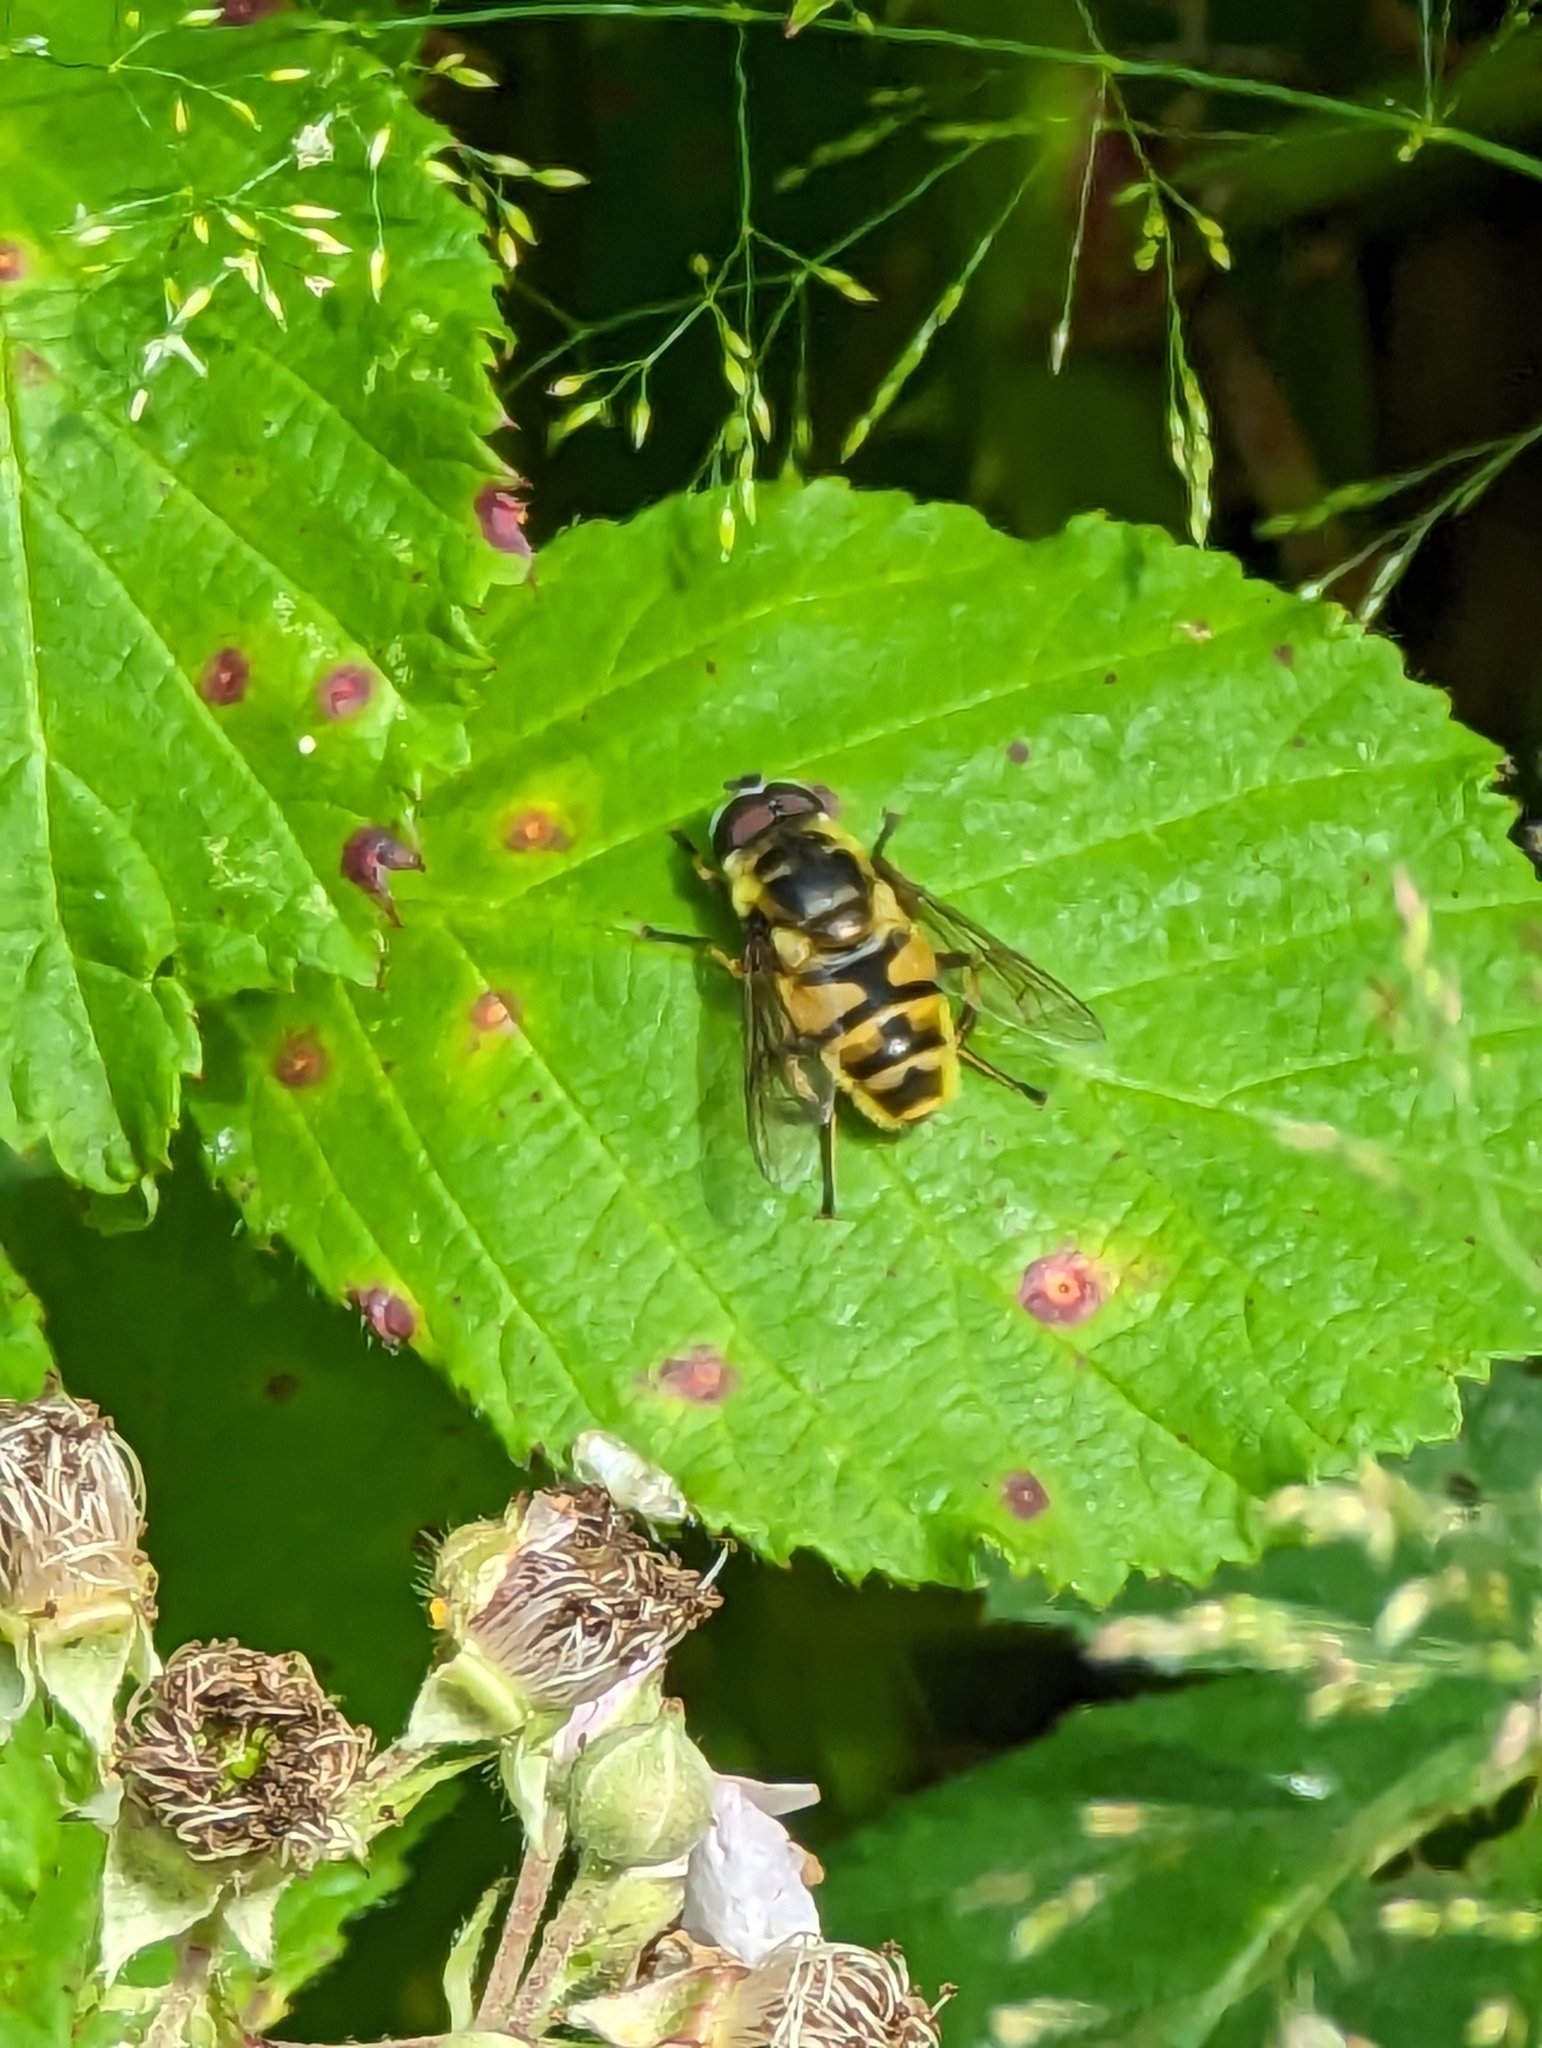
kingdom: Animalia
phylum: Arthropoda
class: Insecta
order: Diptera
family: Syrphidae
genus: Myathropa
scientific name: Myathropa florea
